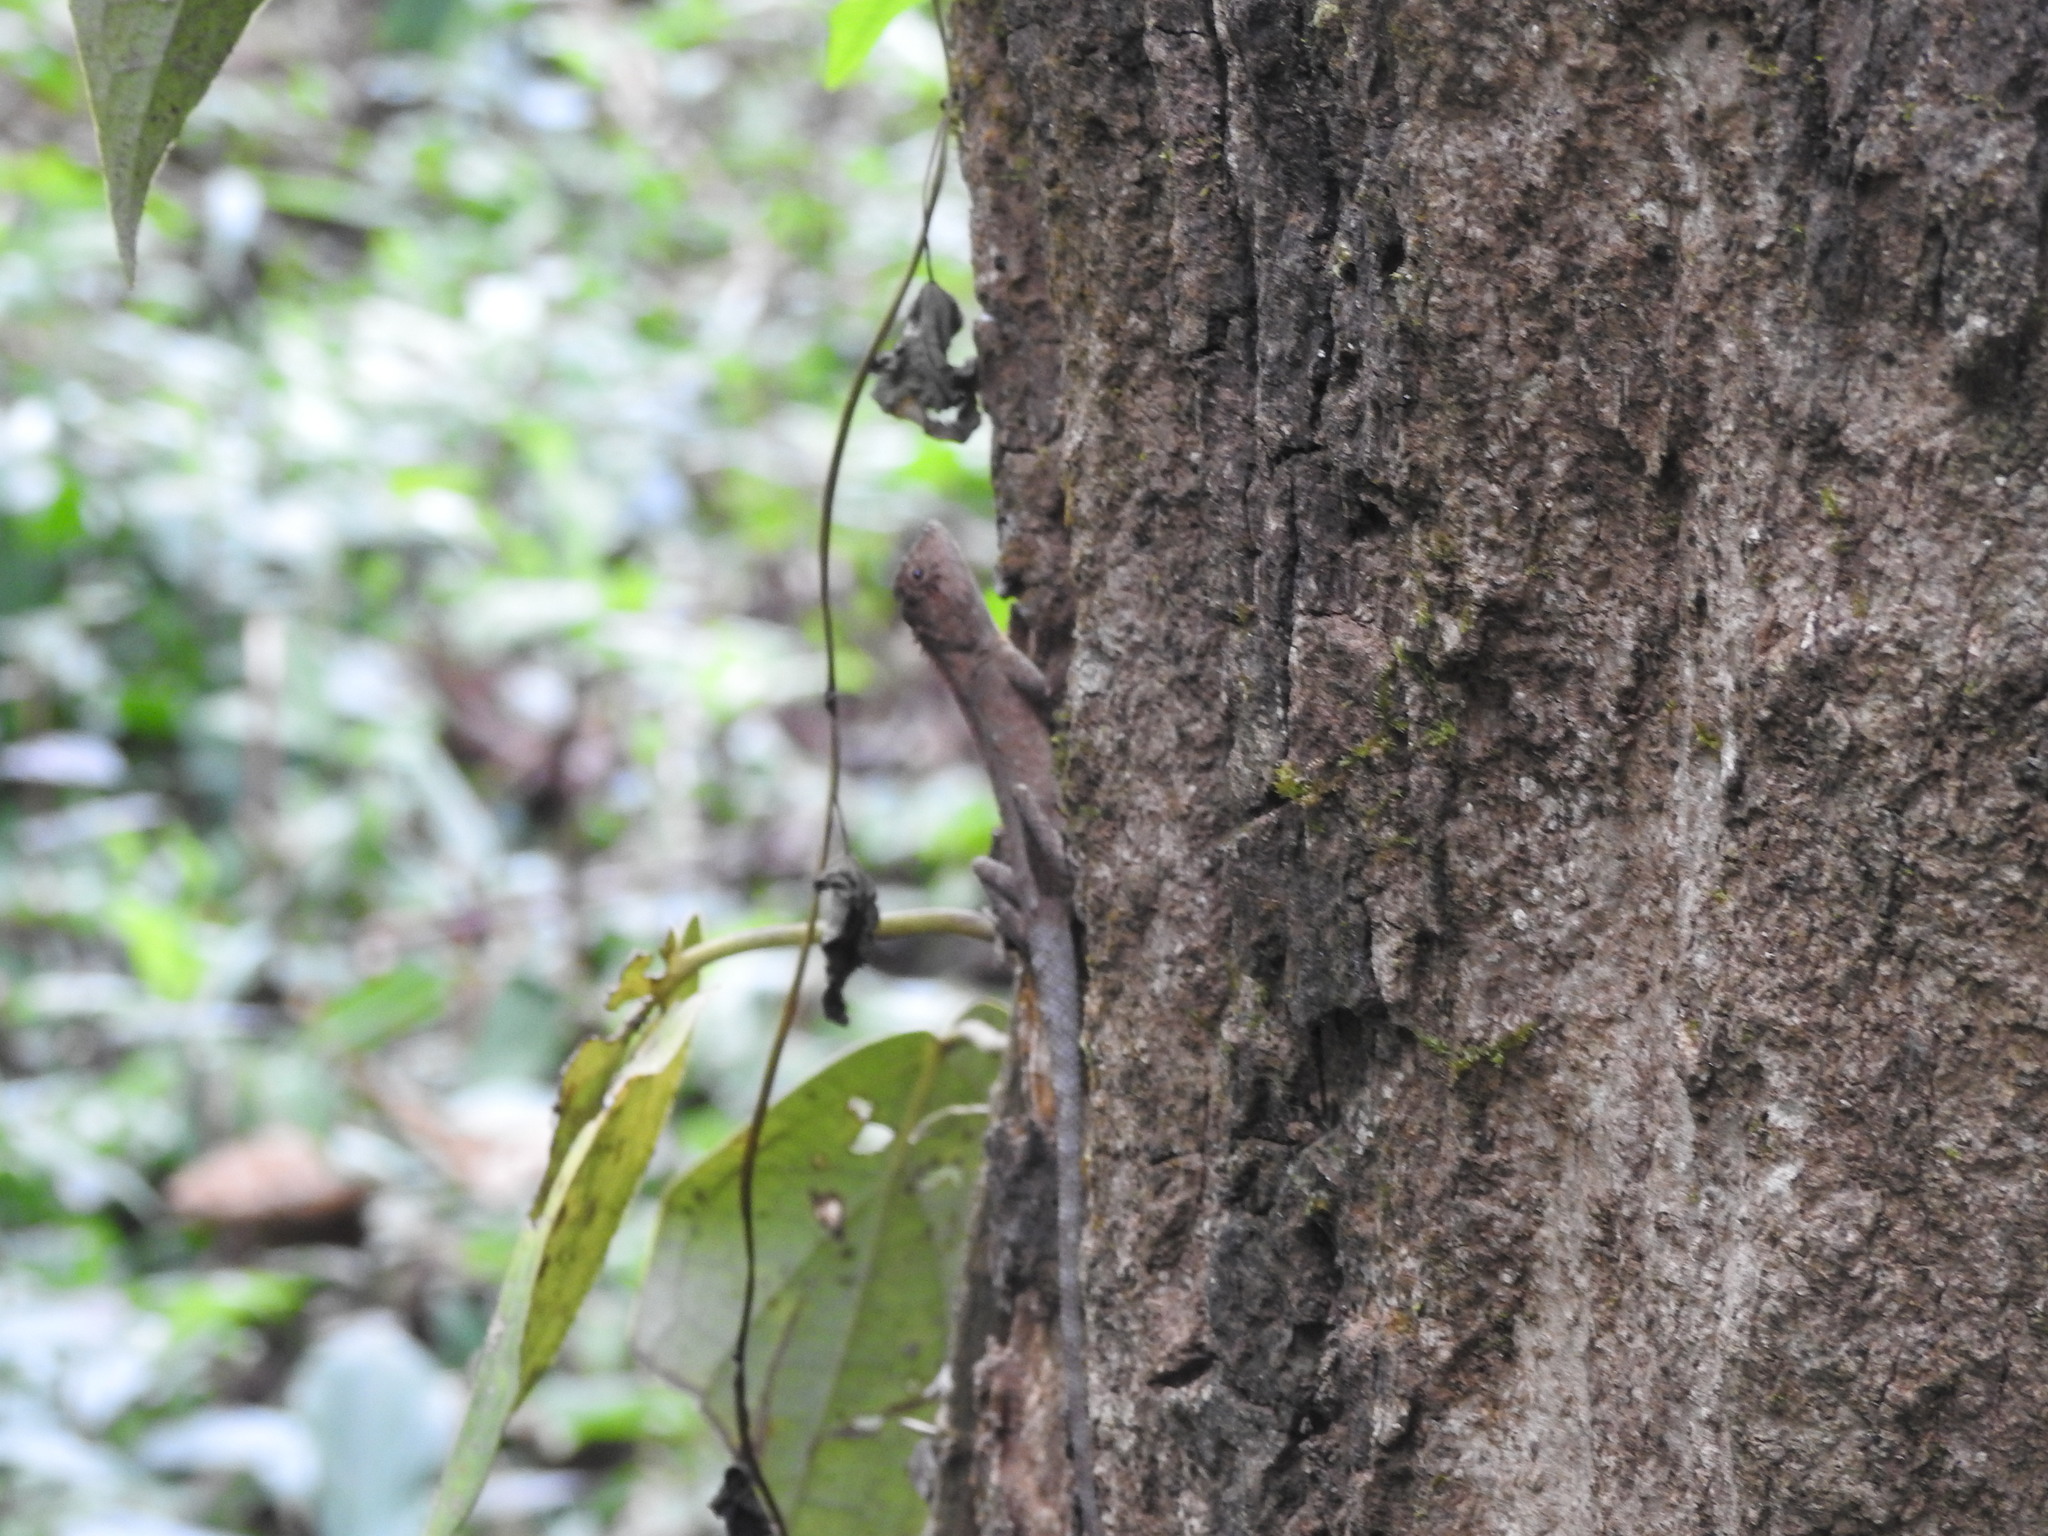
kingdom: Animalia
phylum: Chordata
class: Squamata
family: Agamidae
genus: Monilesaurus
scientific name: Monilesaurus rouxii
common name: Roux's forest lizard
